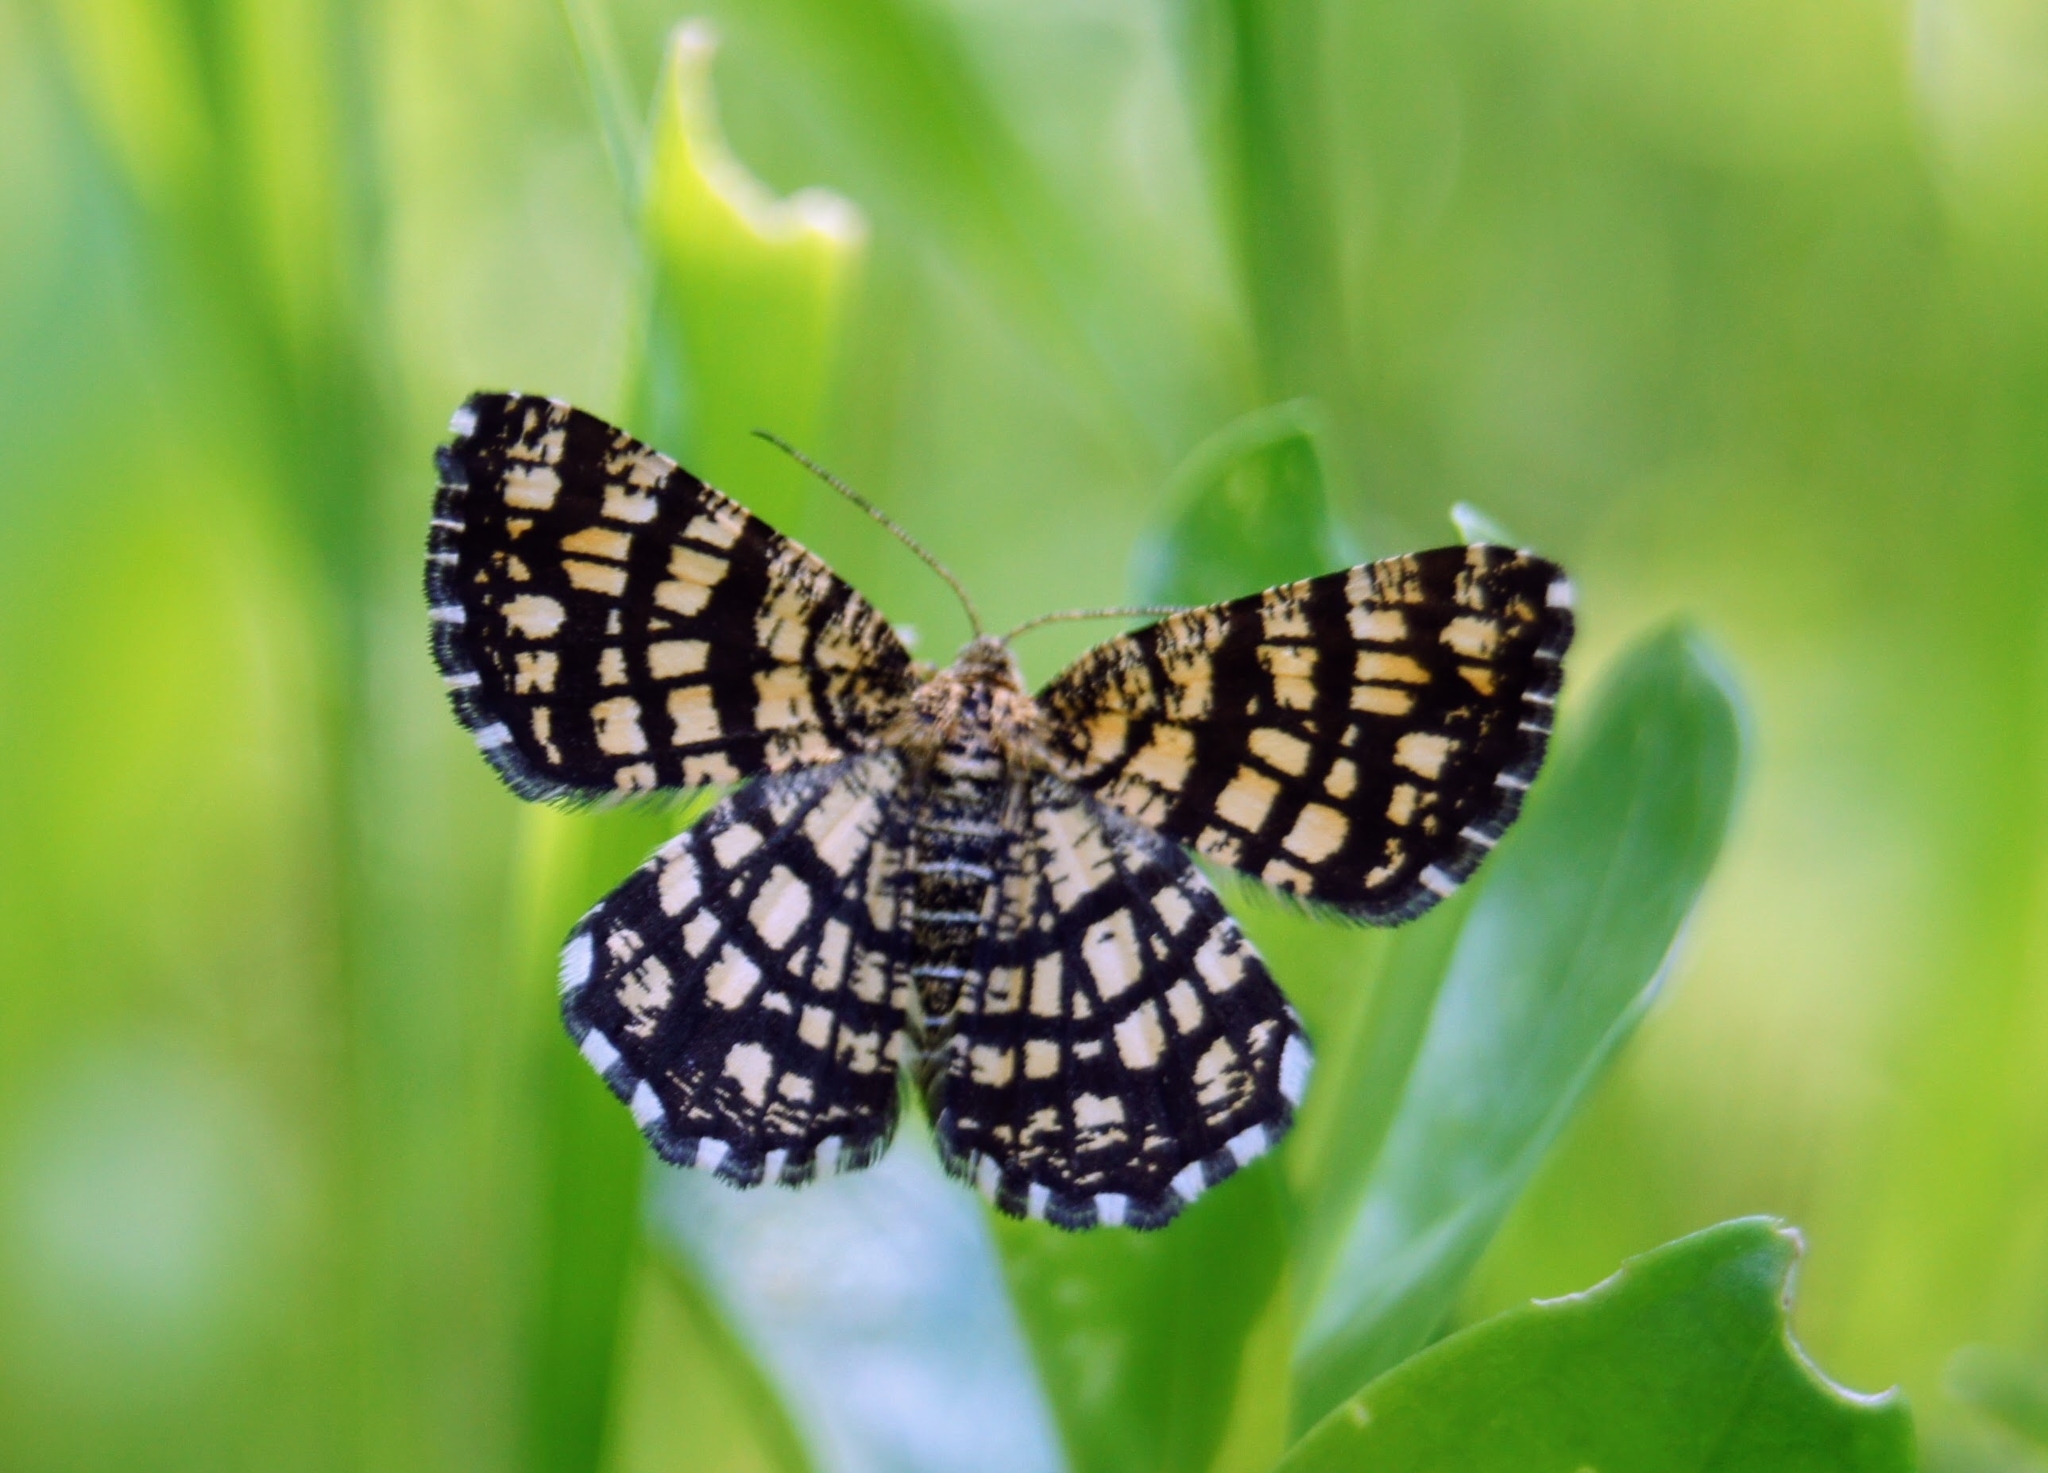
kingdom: Animalia
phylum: Arthropoda
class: Insecta
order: Lepidoptera
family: Geometridae
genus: Chiasmia
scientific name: Chiasmia clathrata
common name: Latticed heath
